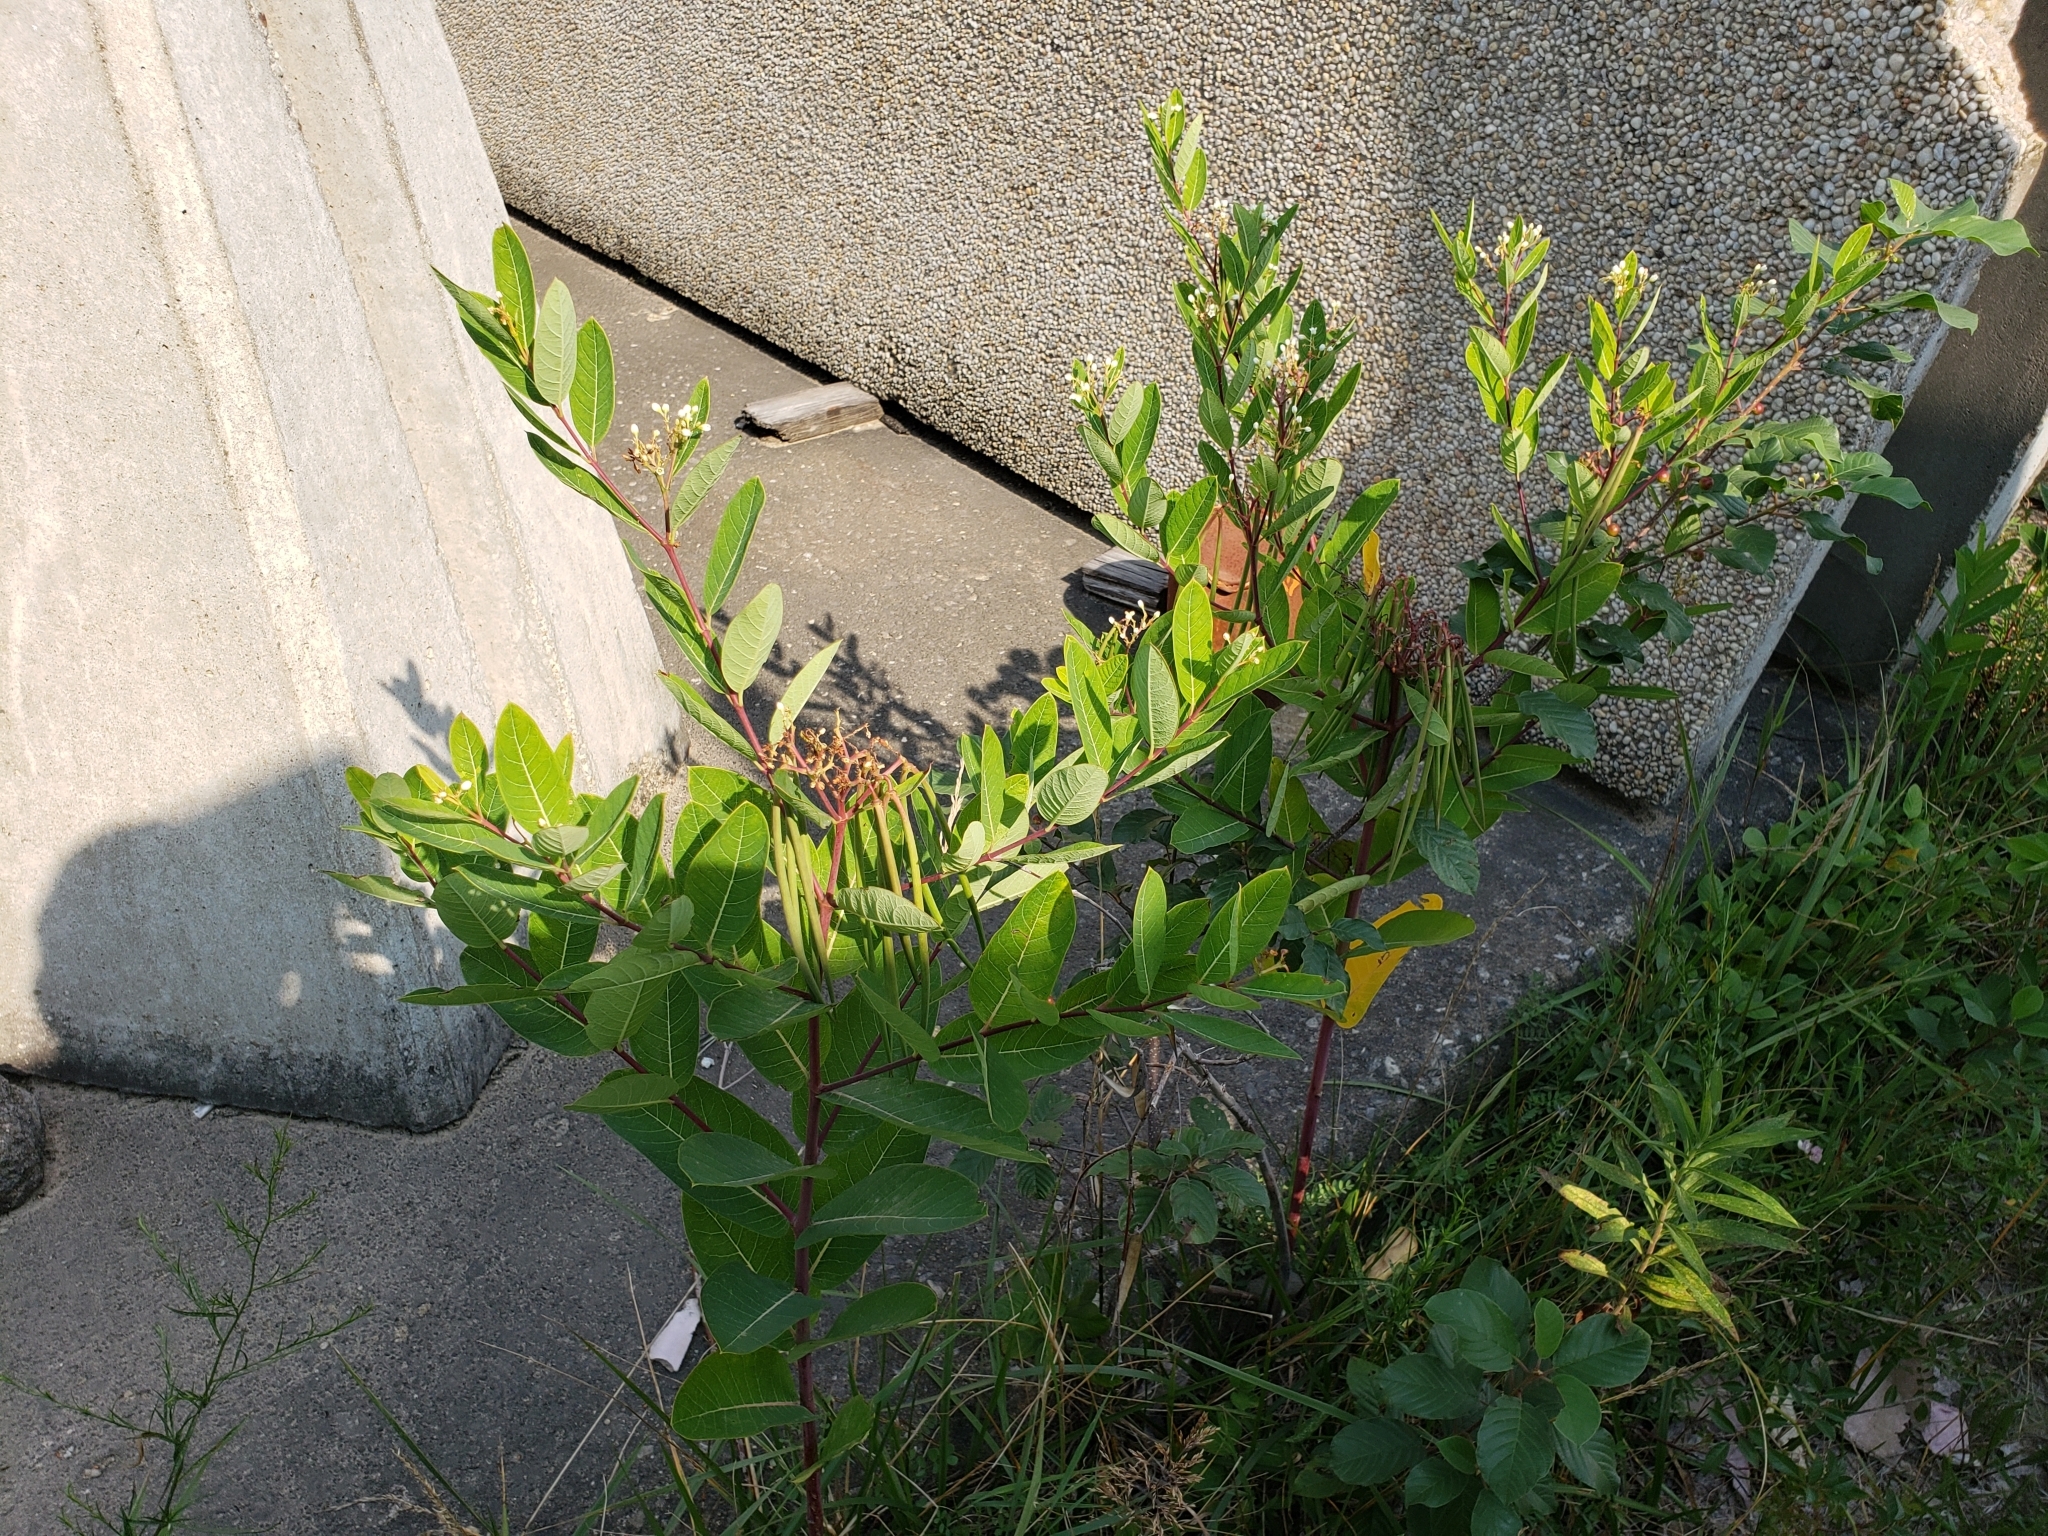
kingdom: Plantae
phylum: Tracheophyta
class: Magnoliopsida
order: Gentianales
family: Apocynaceae
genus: Apocynum
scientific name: Apocynum cannabinum
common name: Hemp dogbane
